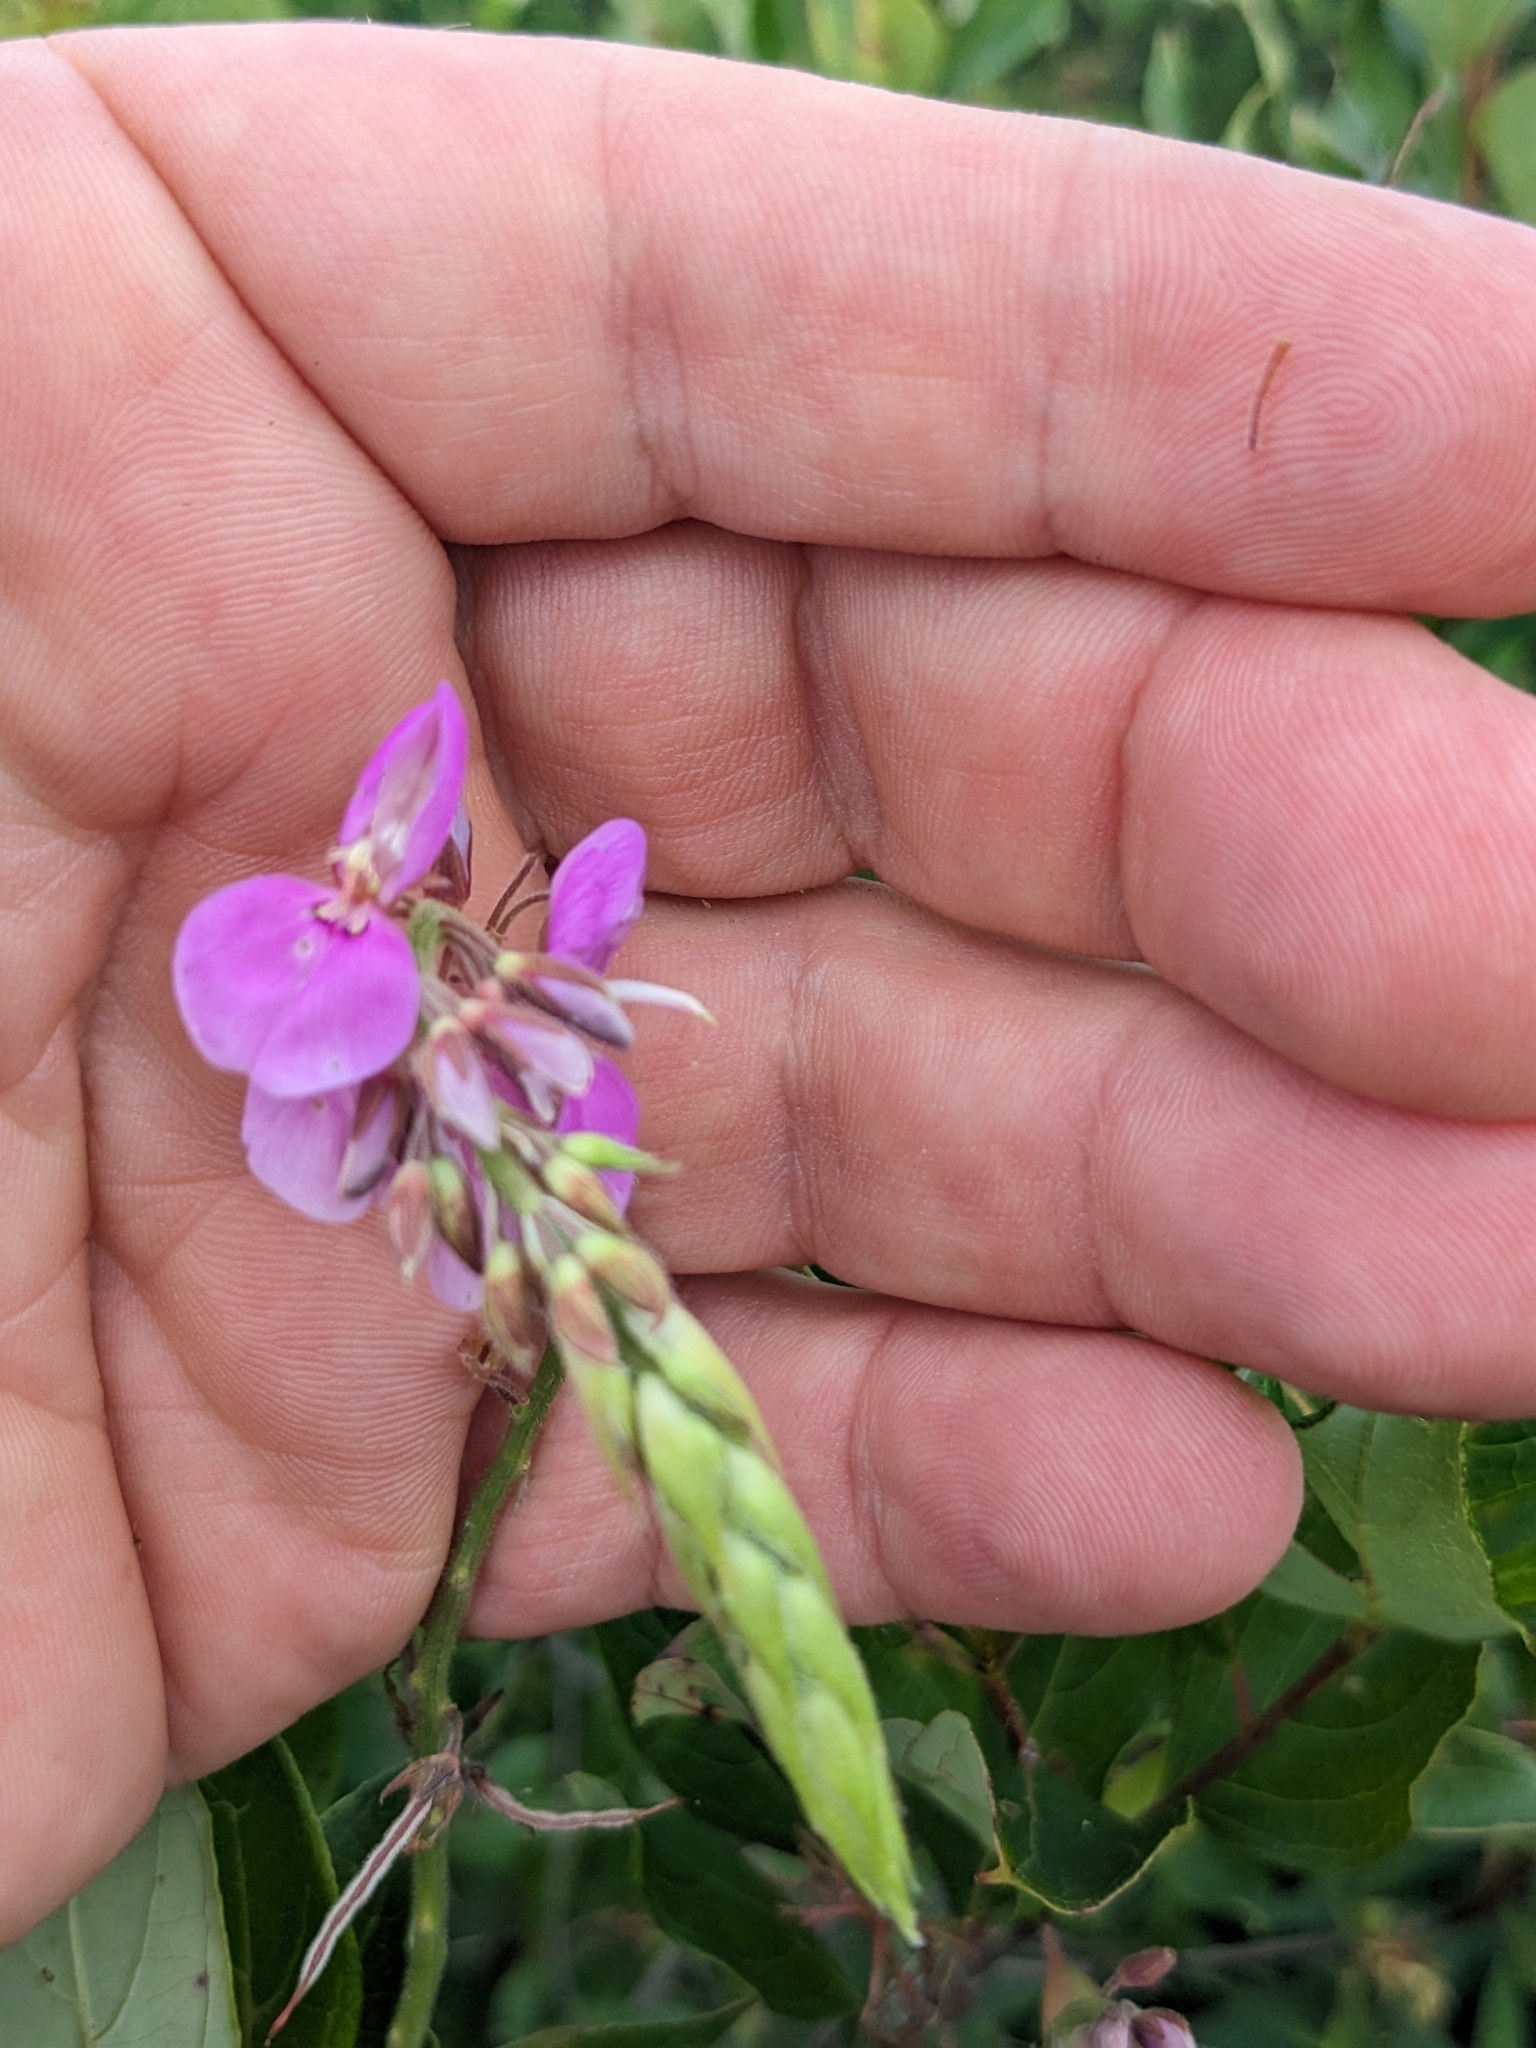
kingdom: Plantae
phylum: Tracheophyta
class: Magnoliopsida
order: Fabales
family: Fabaceae
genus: Desmodium
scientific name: Desmodium canadense
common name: Canada tick-trefoil
